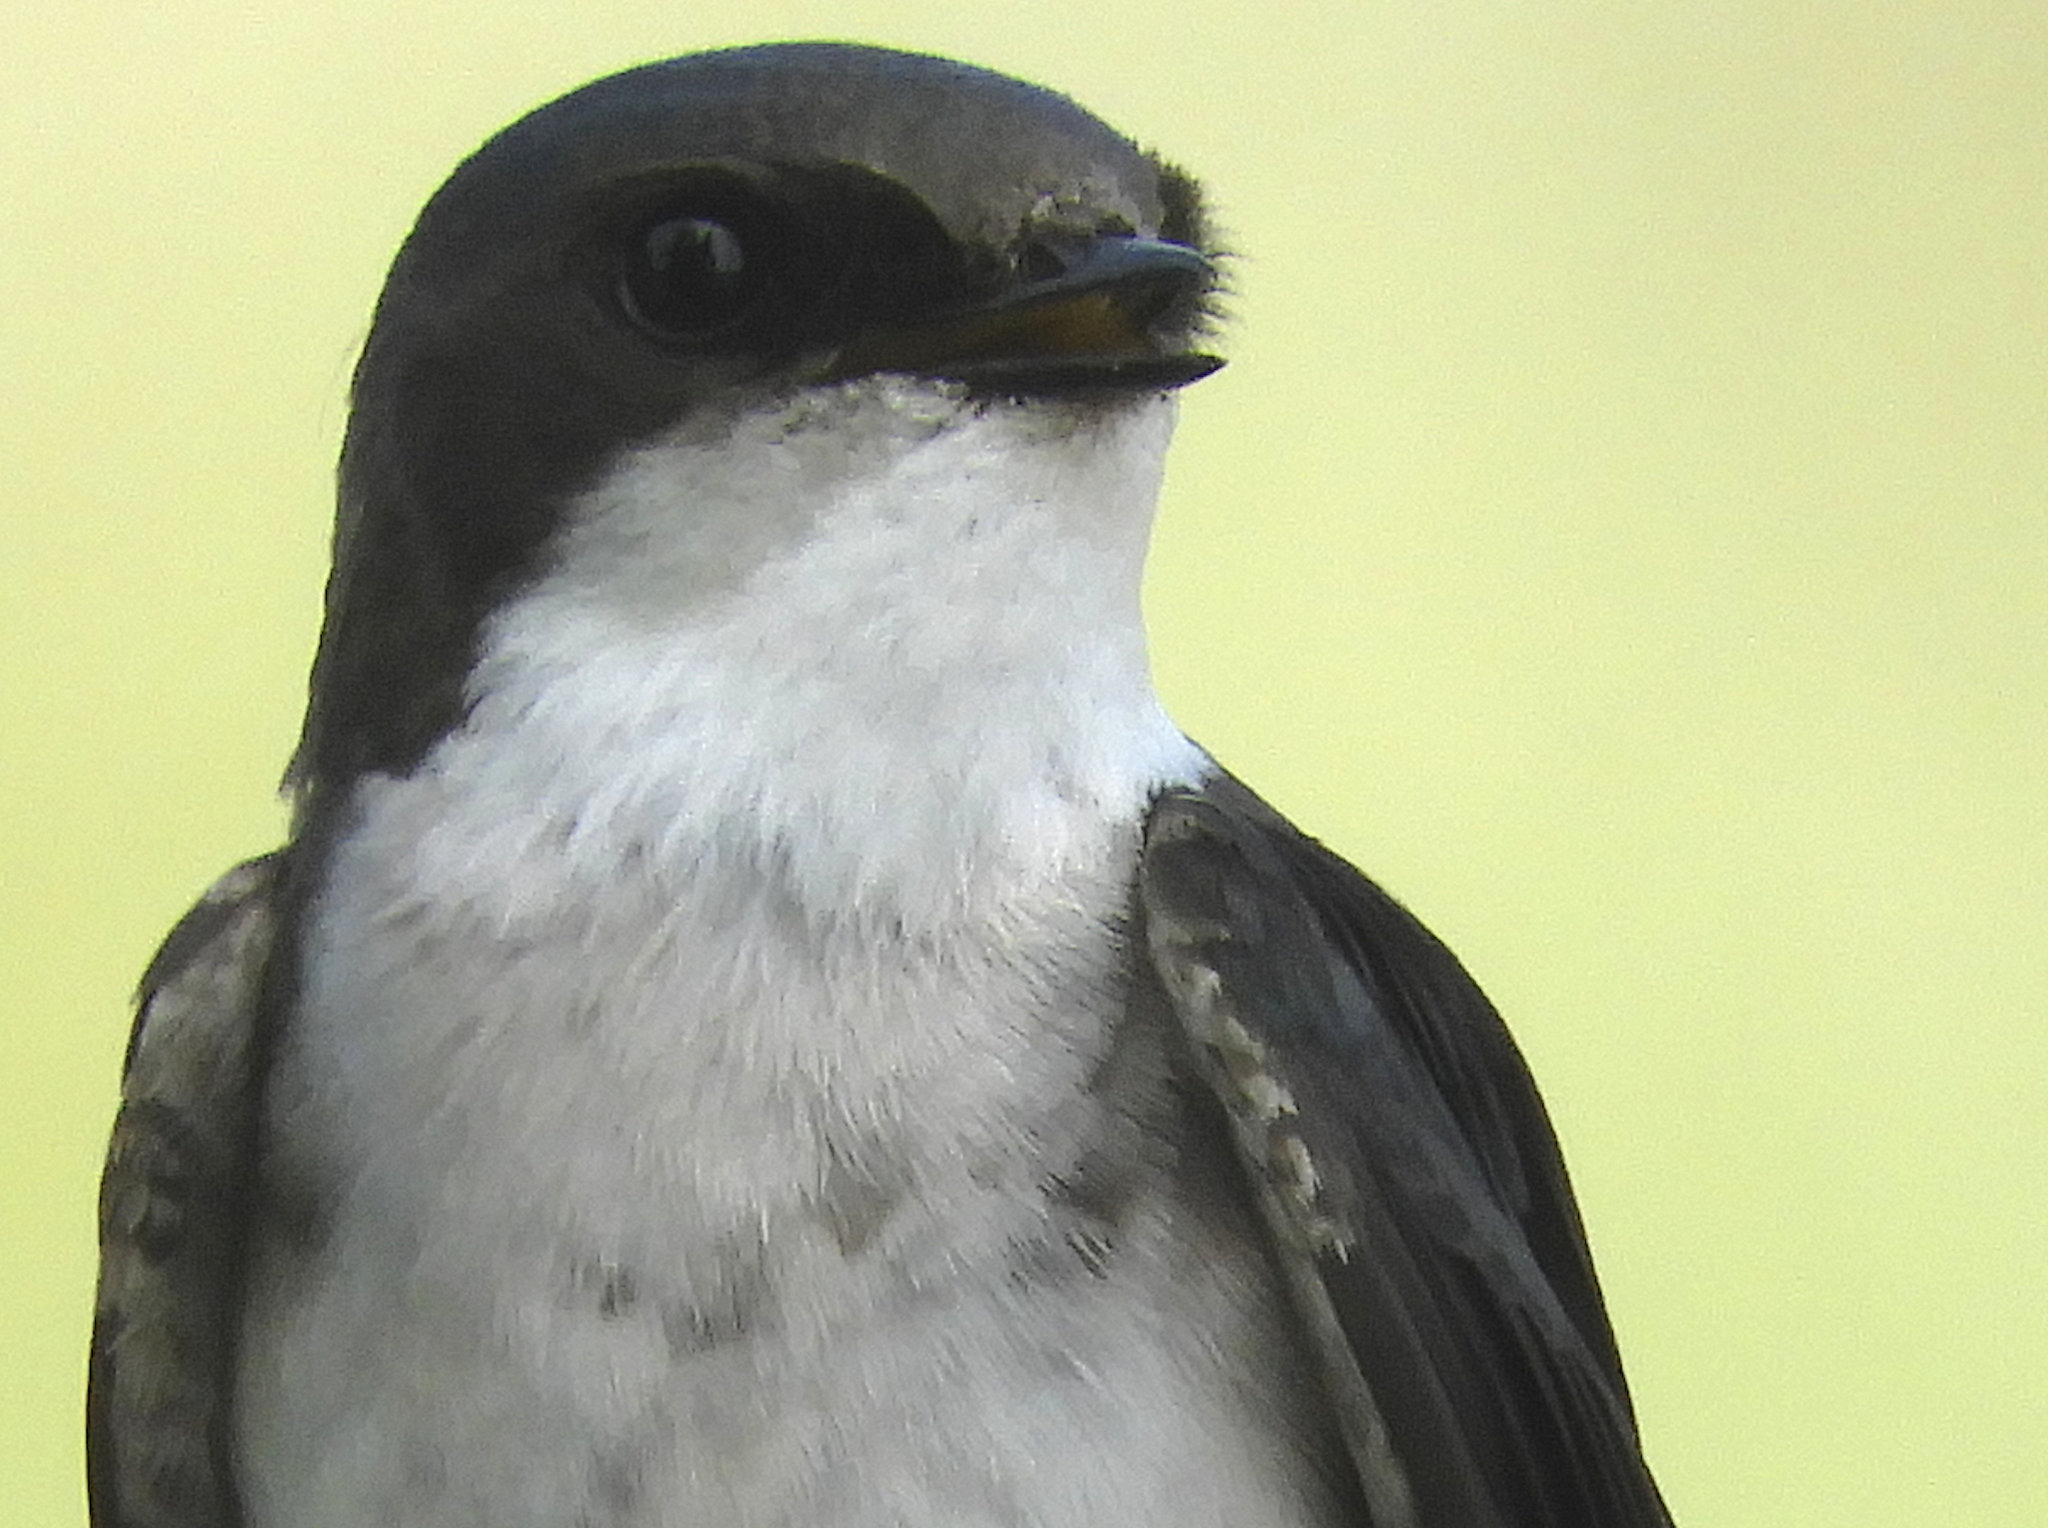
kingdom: Animalia
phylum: Chordata
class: Aves
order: Passeriformes
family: Hirundinidae
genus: Tachycineta
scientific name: Tachycineta bicolor
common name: Tree swallow
